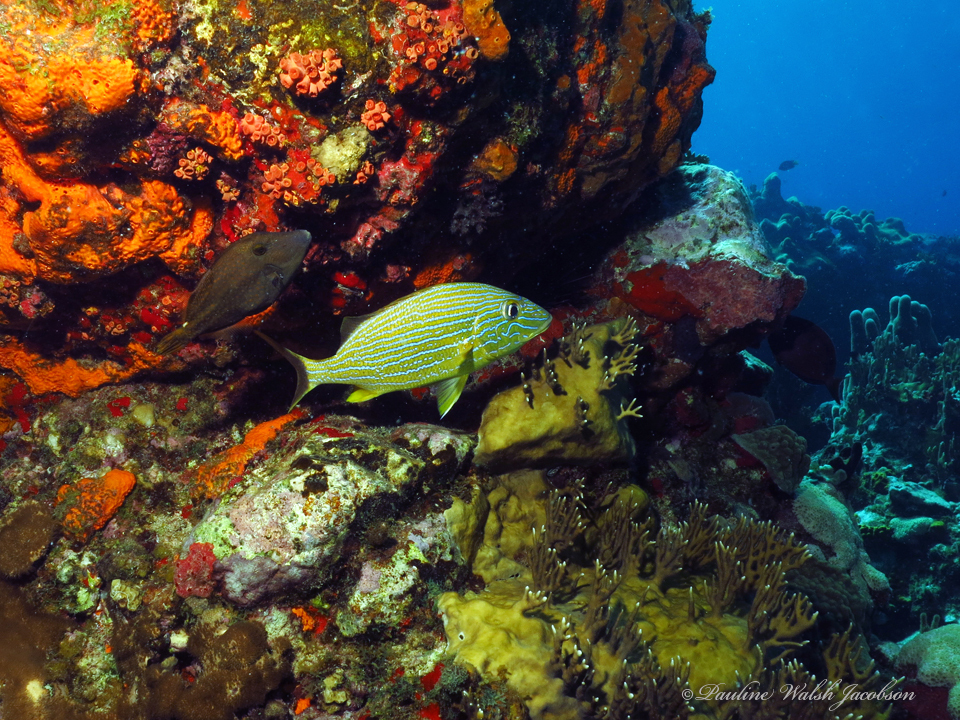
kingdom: Animalia
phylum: Chordata
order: Perciformes
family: Haemulidae
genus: Haemulon
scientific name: Haemulon sciurus
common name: Bluestriped grunt
